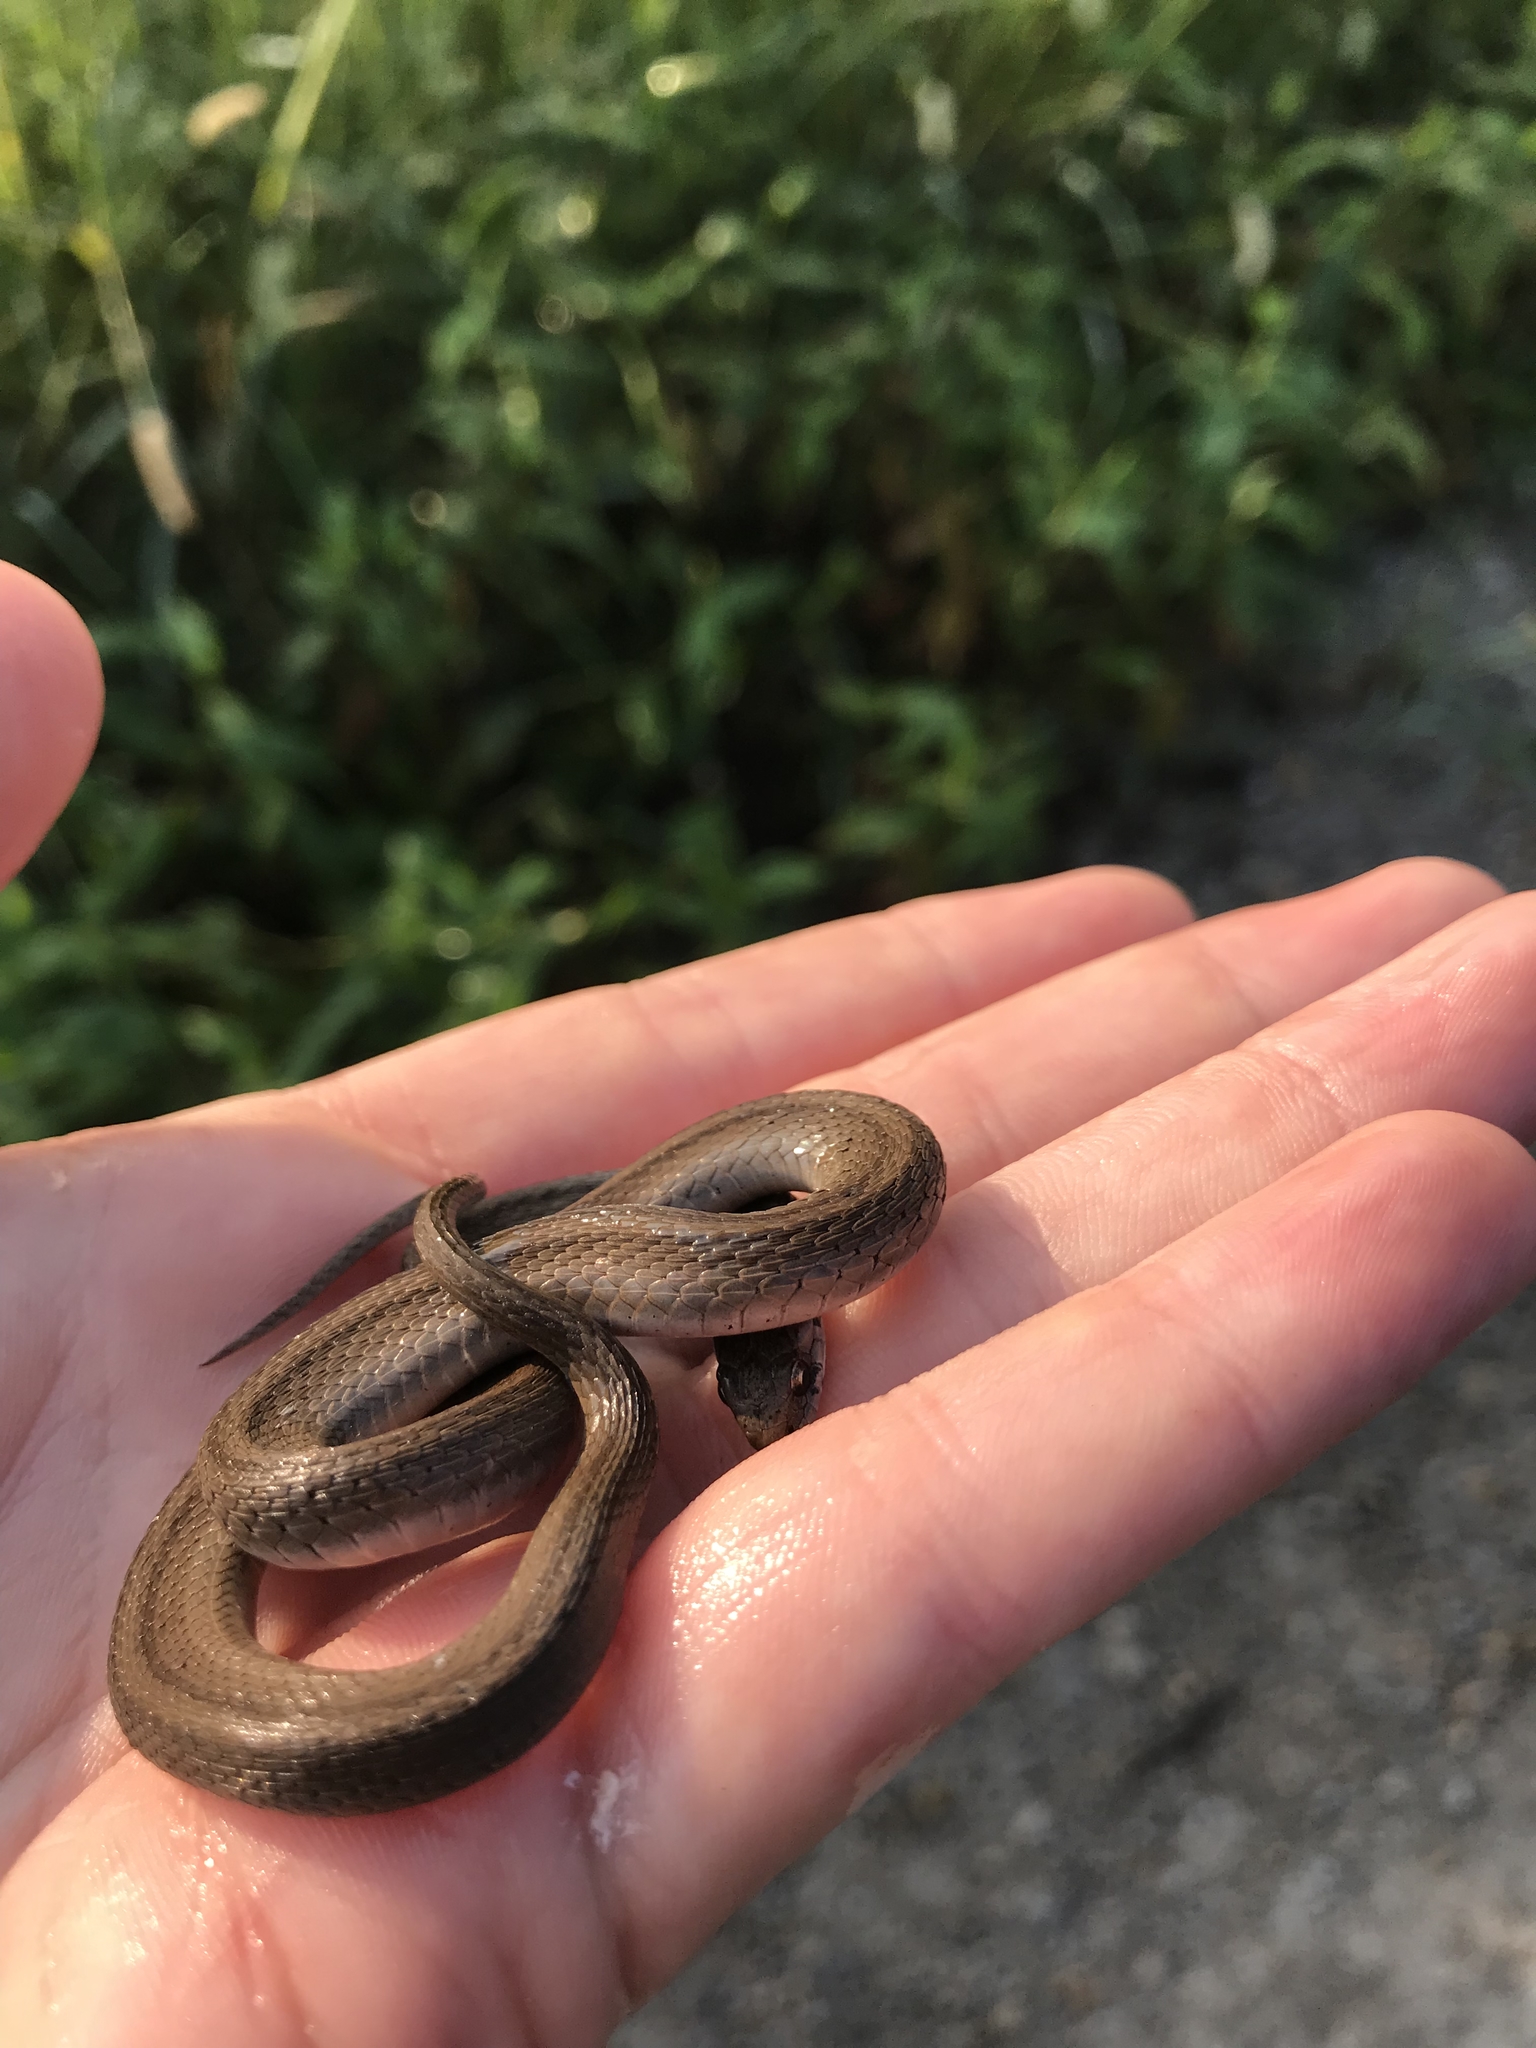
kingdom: Animalia
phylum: Chordata
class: Squamata
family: Colubridae
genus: Storeria
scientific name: Storeria dekayi
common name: (dekay’s) brown snake
